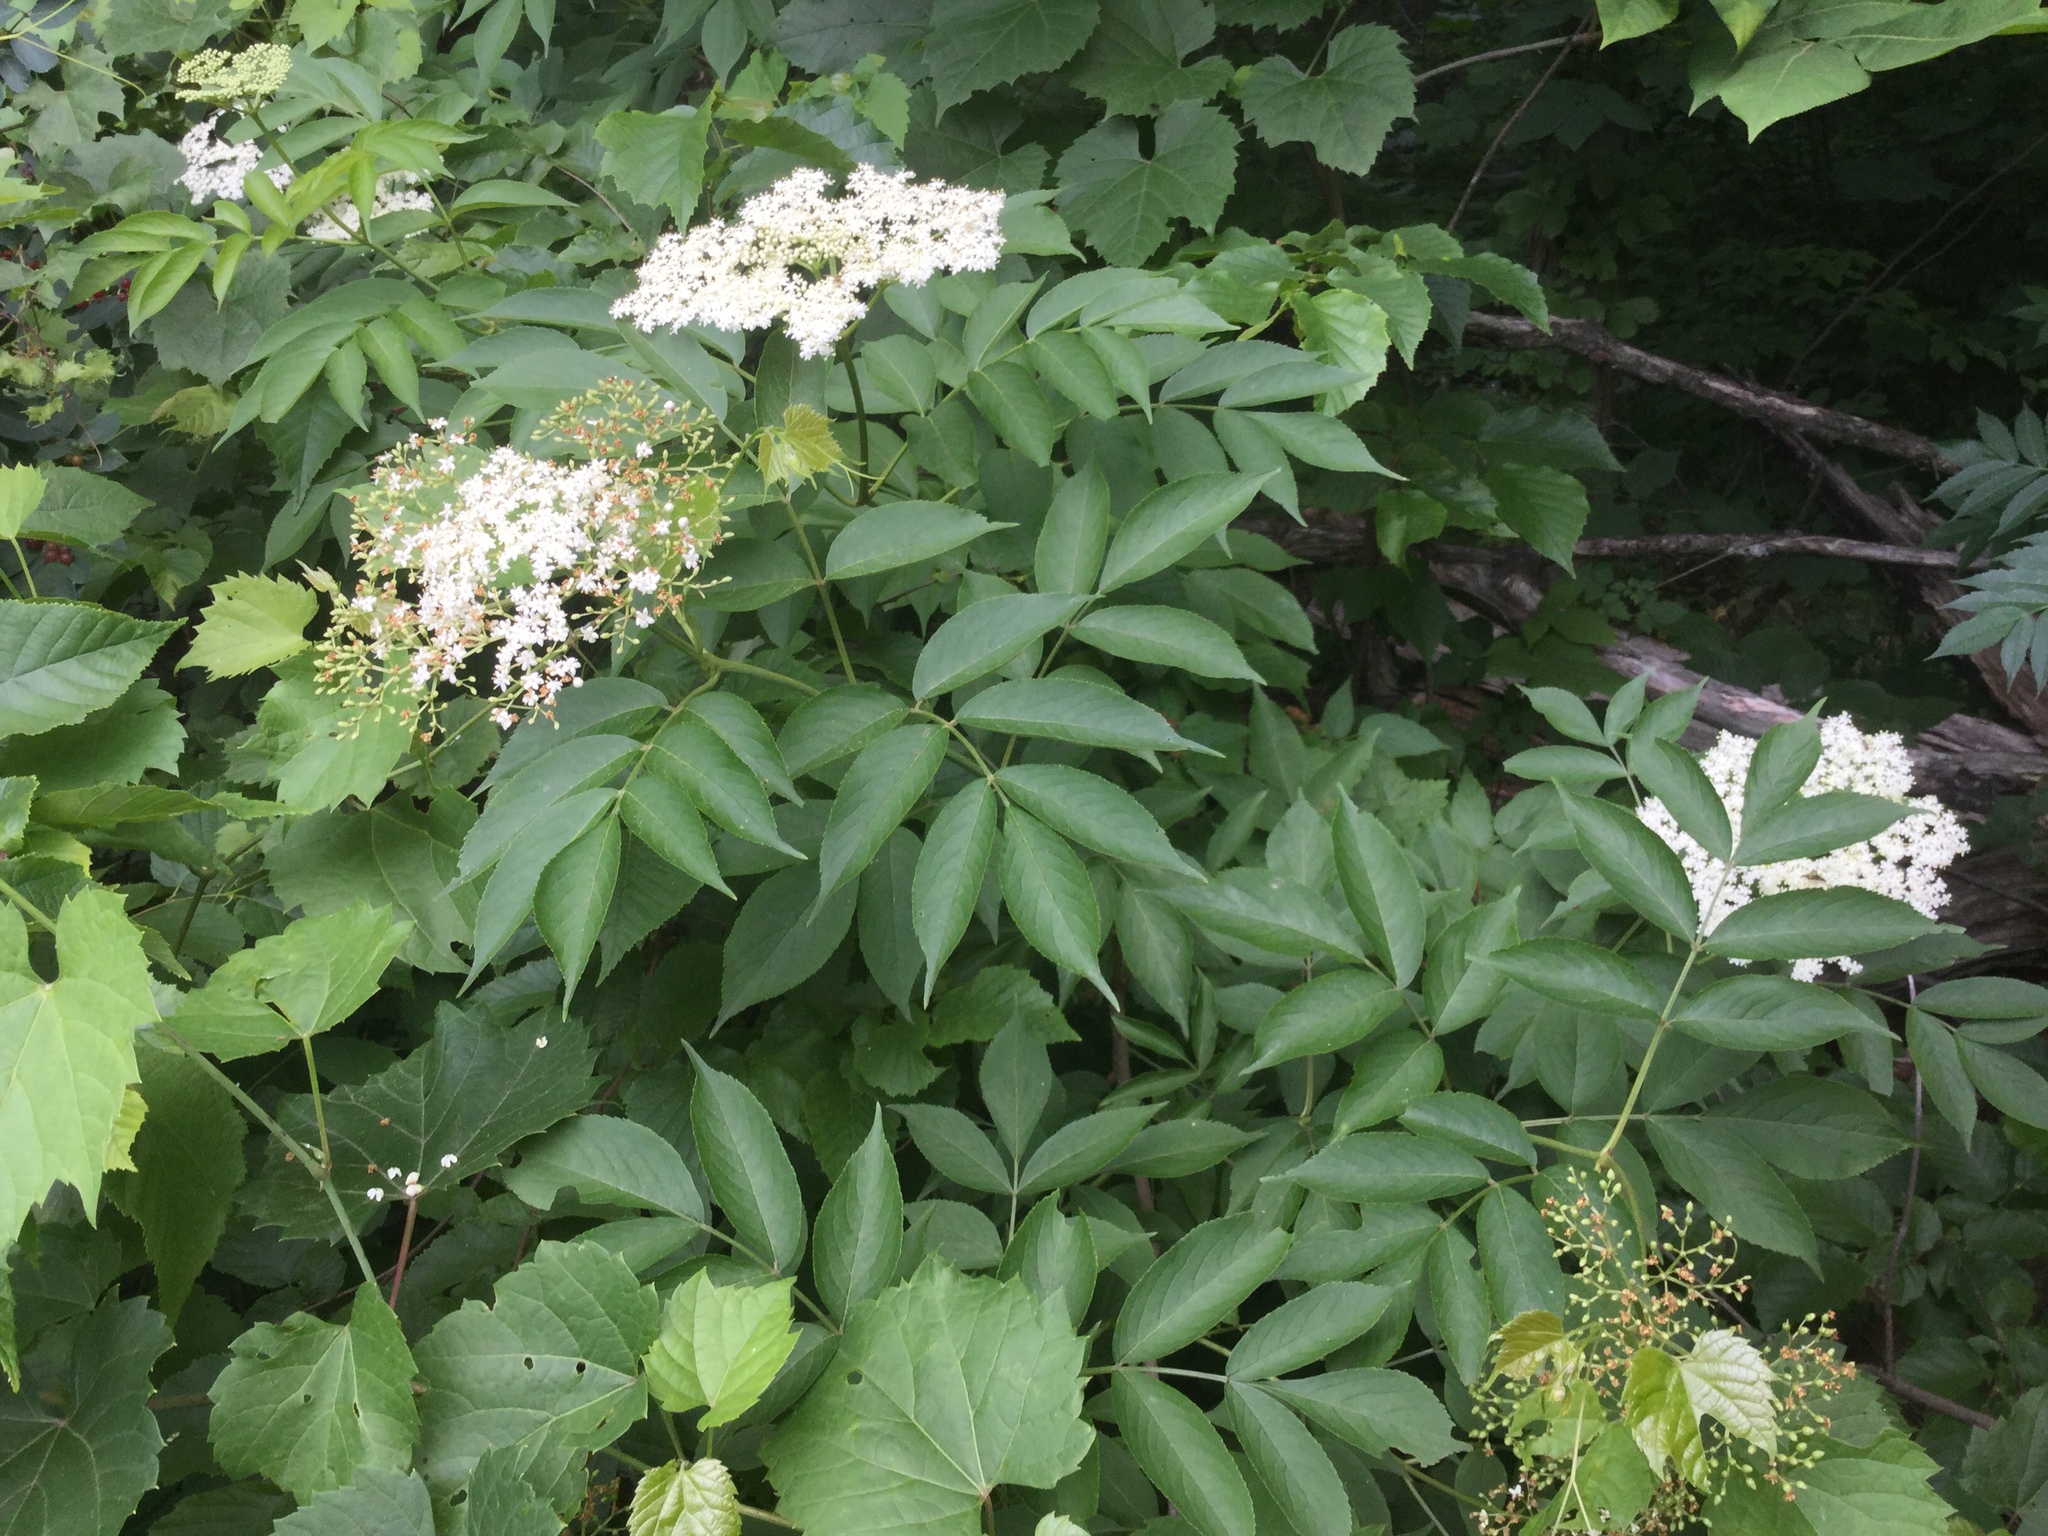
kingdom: Plantae
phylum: Tracheophyta
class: Magnoliopsida
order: Dipsacales
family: Viburnaceae
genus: Sambucus
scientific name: Sambucus canadensis
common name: American elder
